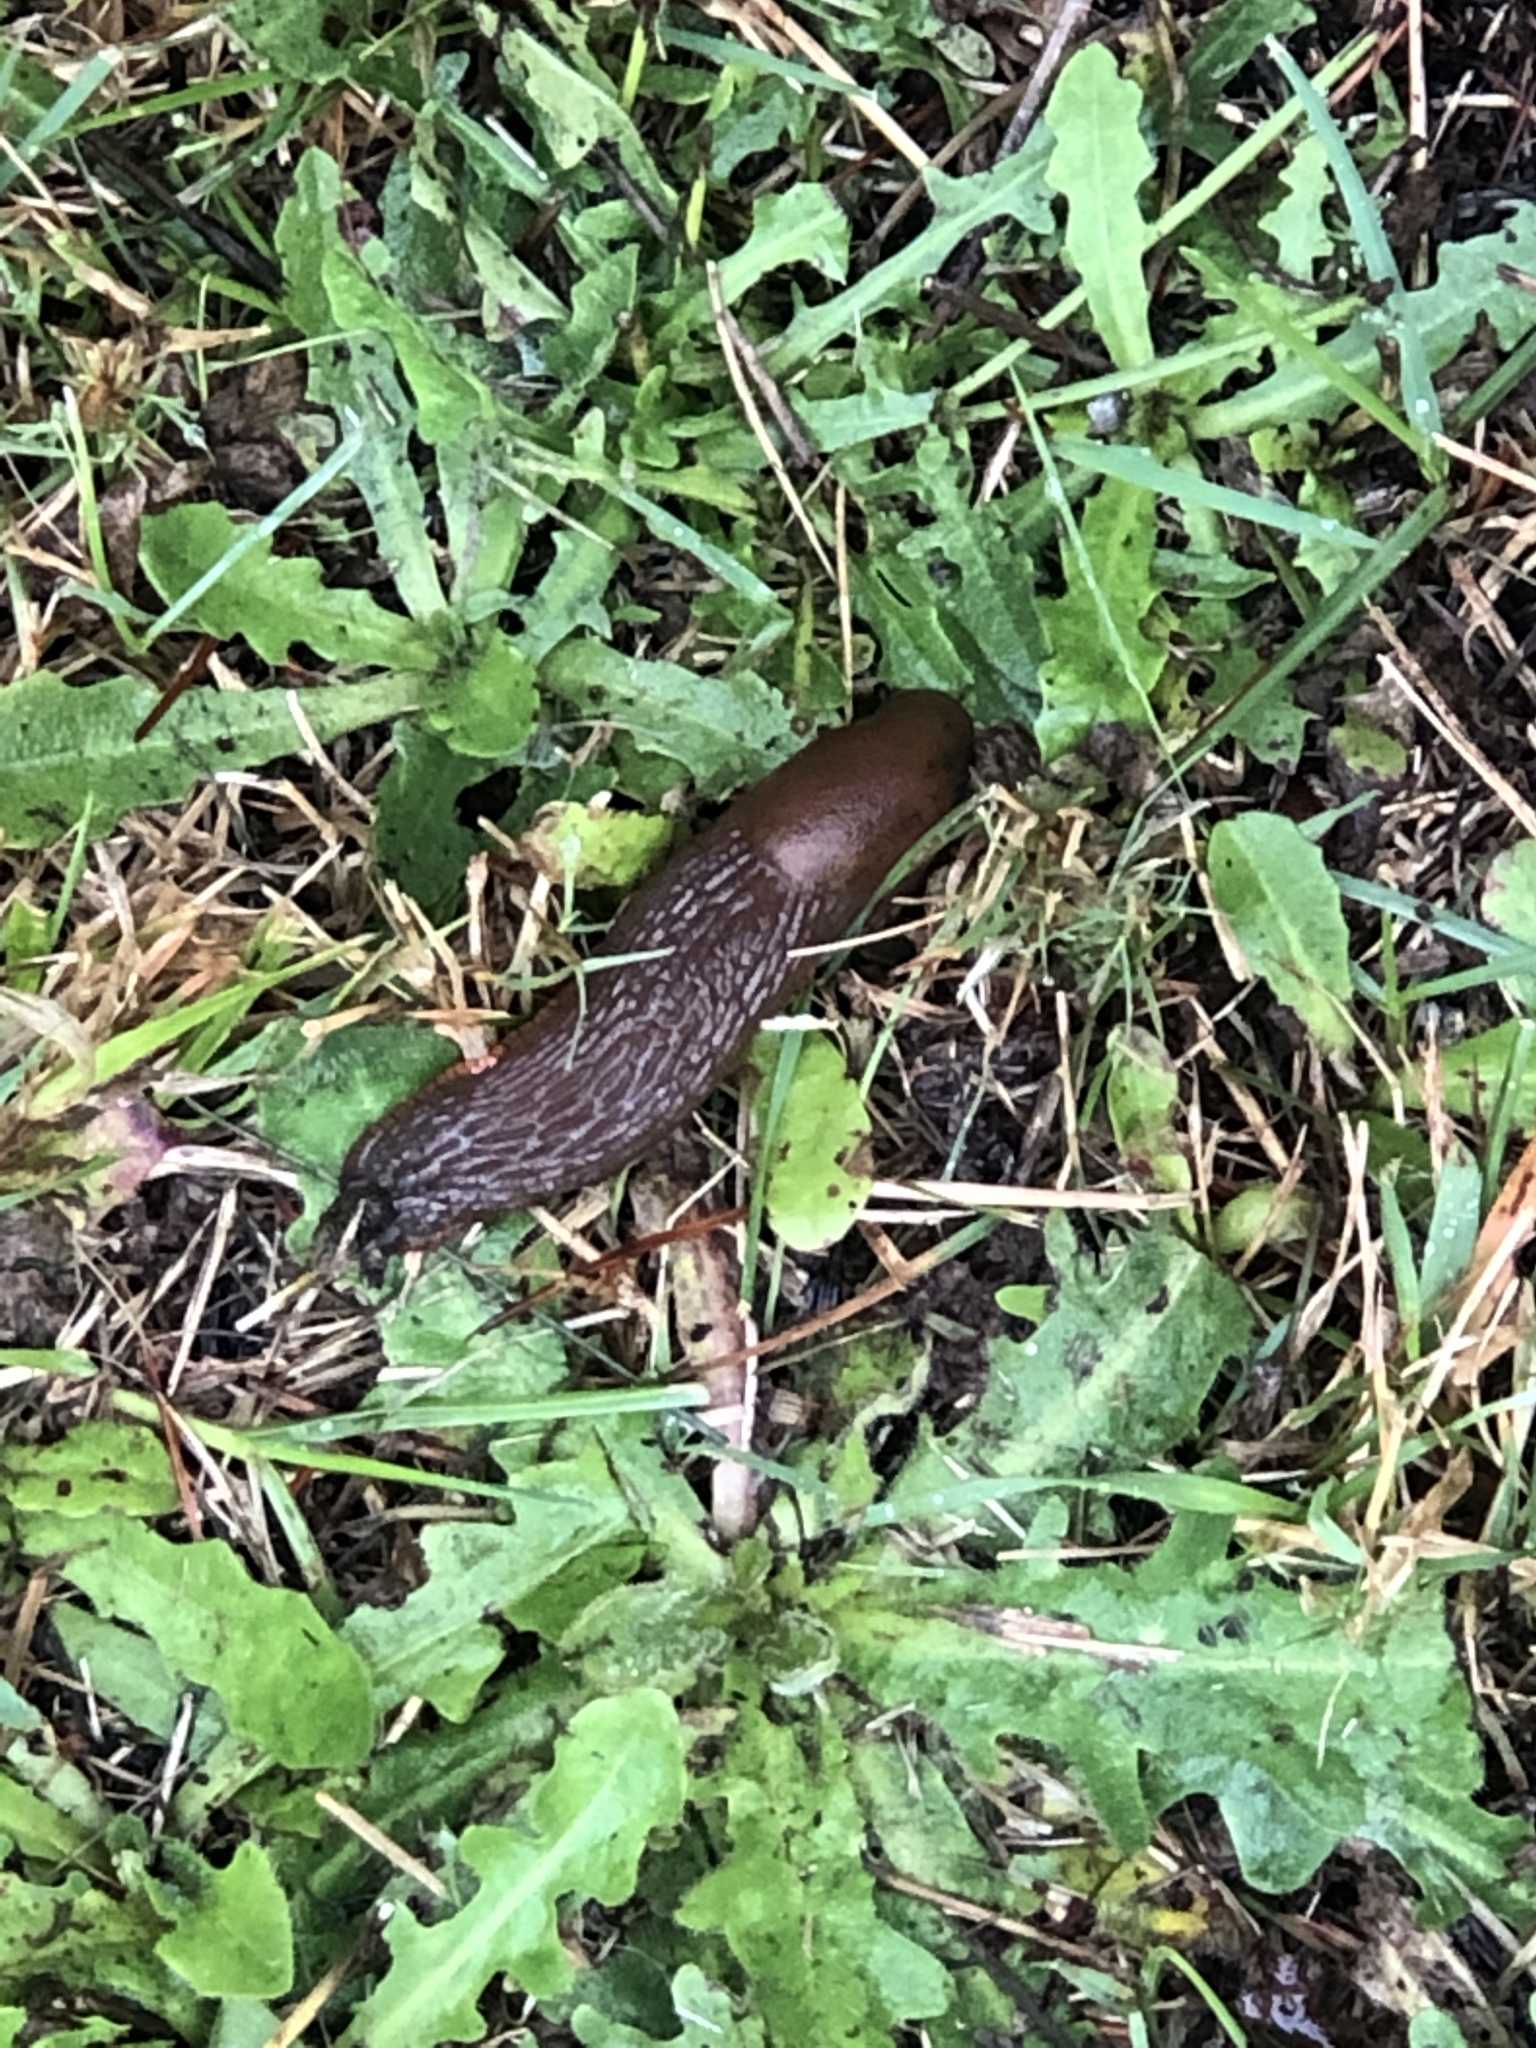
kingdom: Animalia
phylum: Mollusca
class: Gastropoda
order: Stylommatophora
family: Arionidae
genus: Arion
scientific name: Arion
